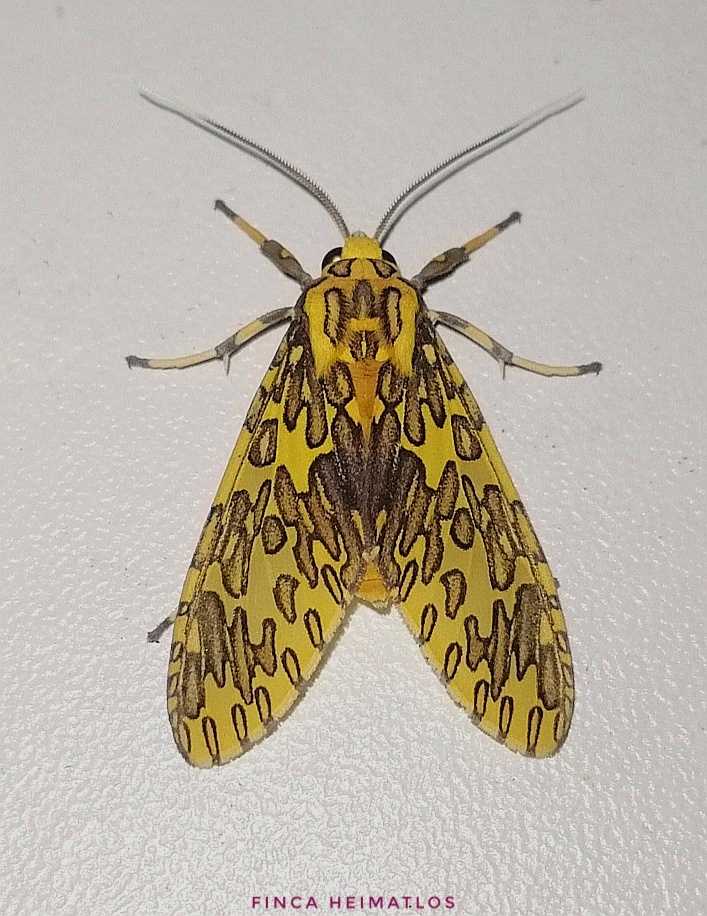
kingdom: Animalia
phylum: Arthropoda
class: Insecta
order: Lepidoptera
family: Erebidae
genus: Amaxia
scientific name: Amaxia pandama
